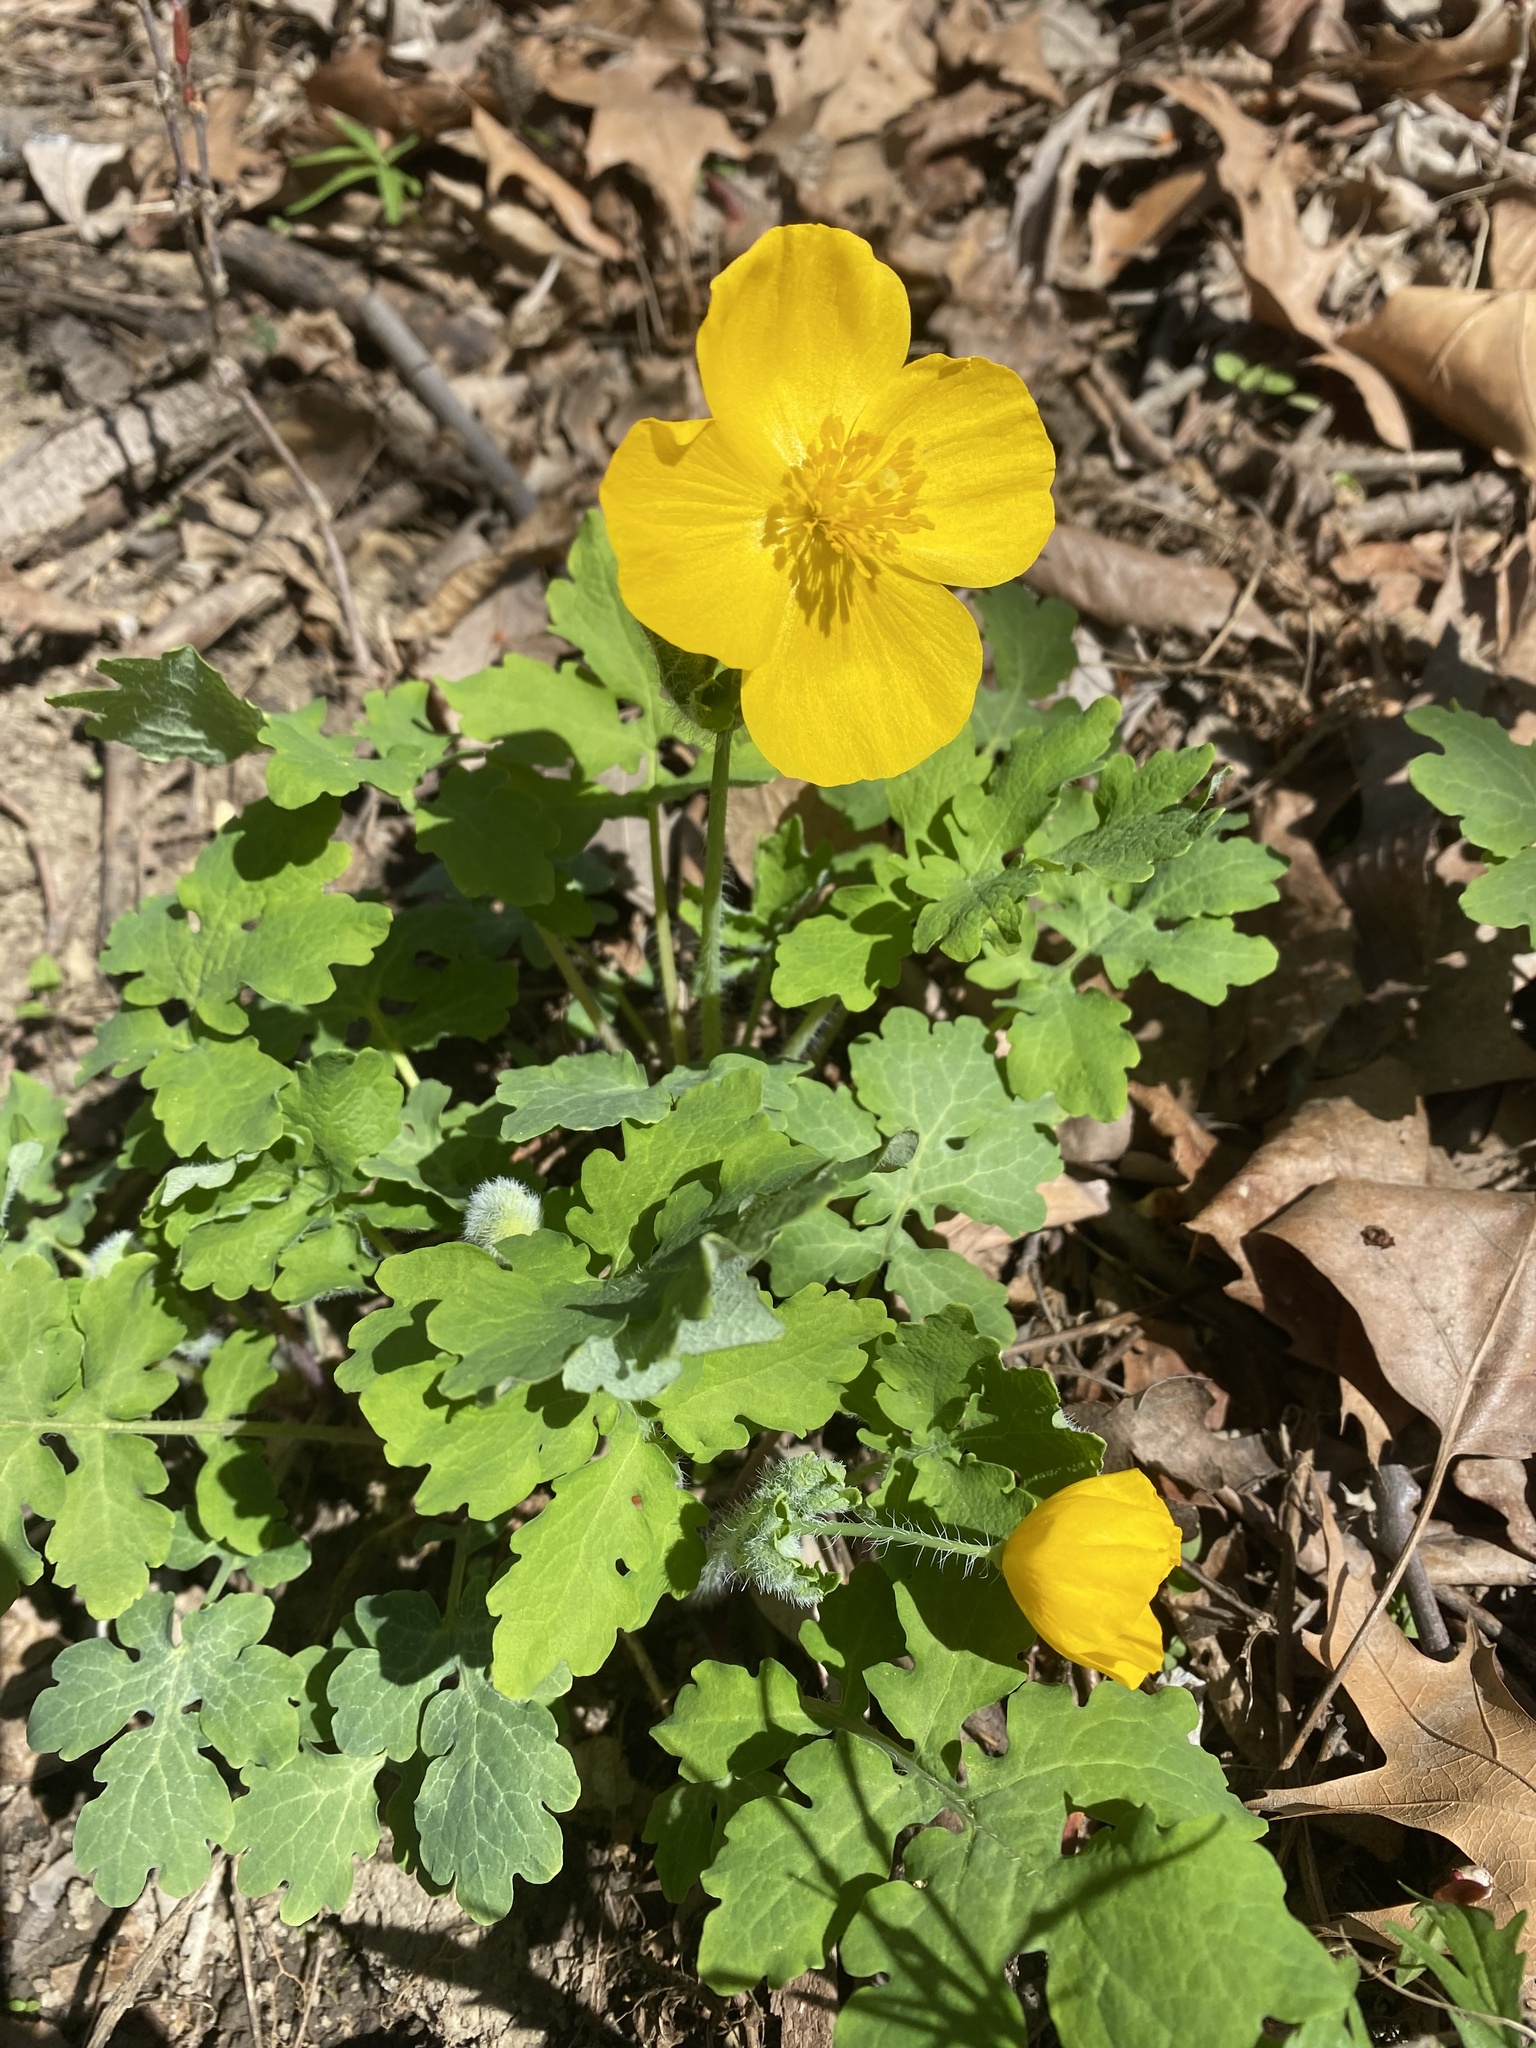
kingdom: Plantae
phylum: Tracheophyta
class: Magnoliopsida
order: Ranunculales
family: Papaveraceae
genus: Stylophorum
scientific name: Stylophorum diphyllum
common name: Celandine poppy
